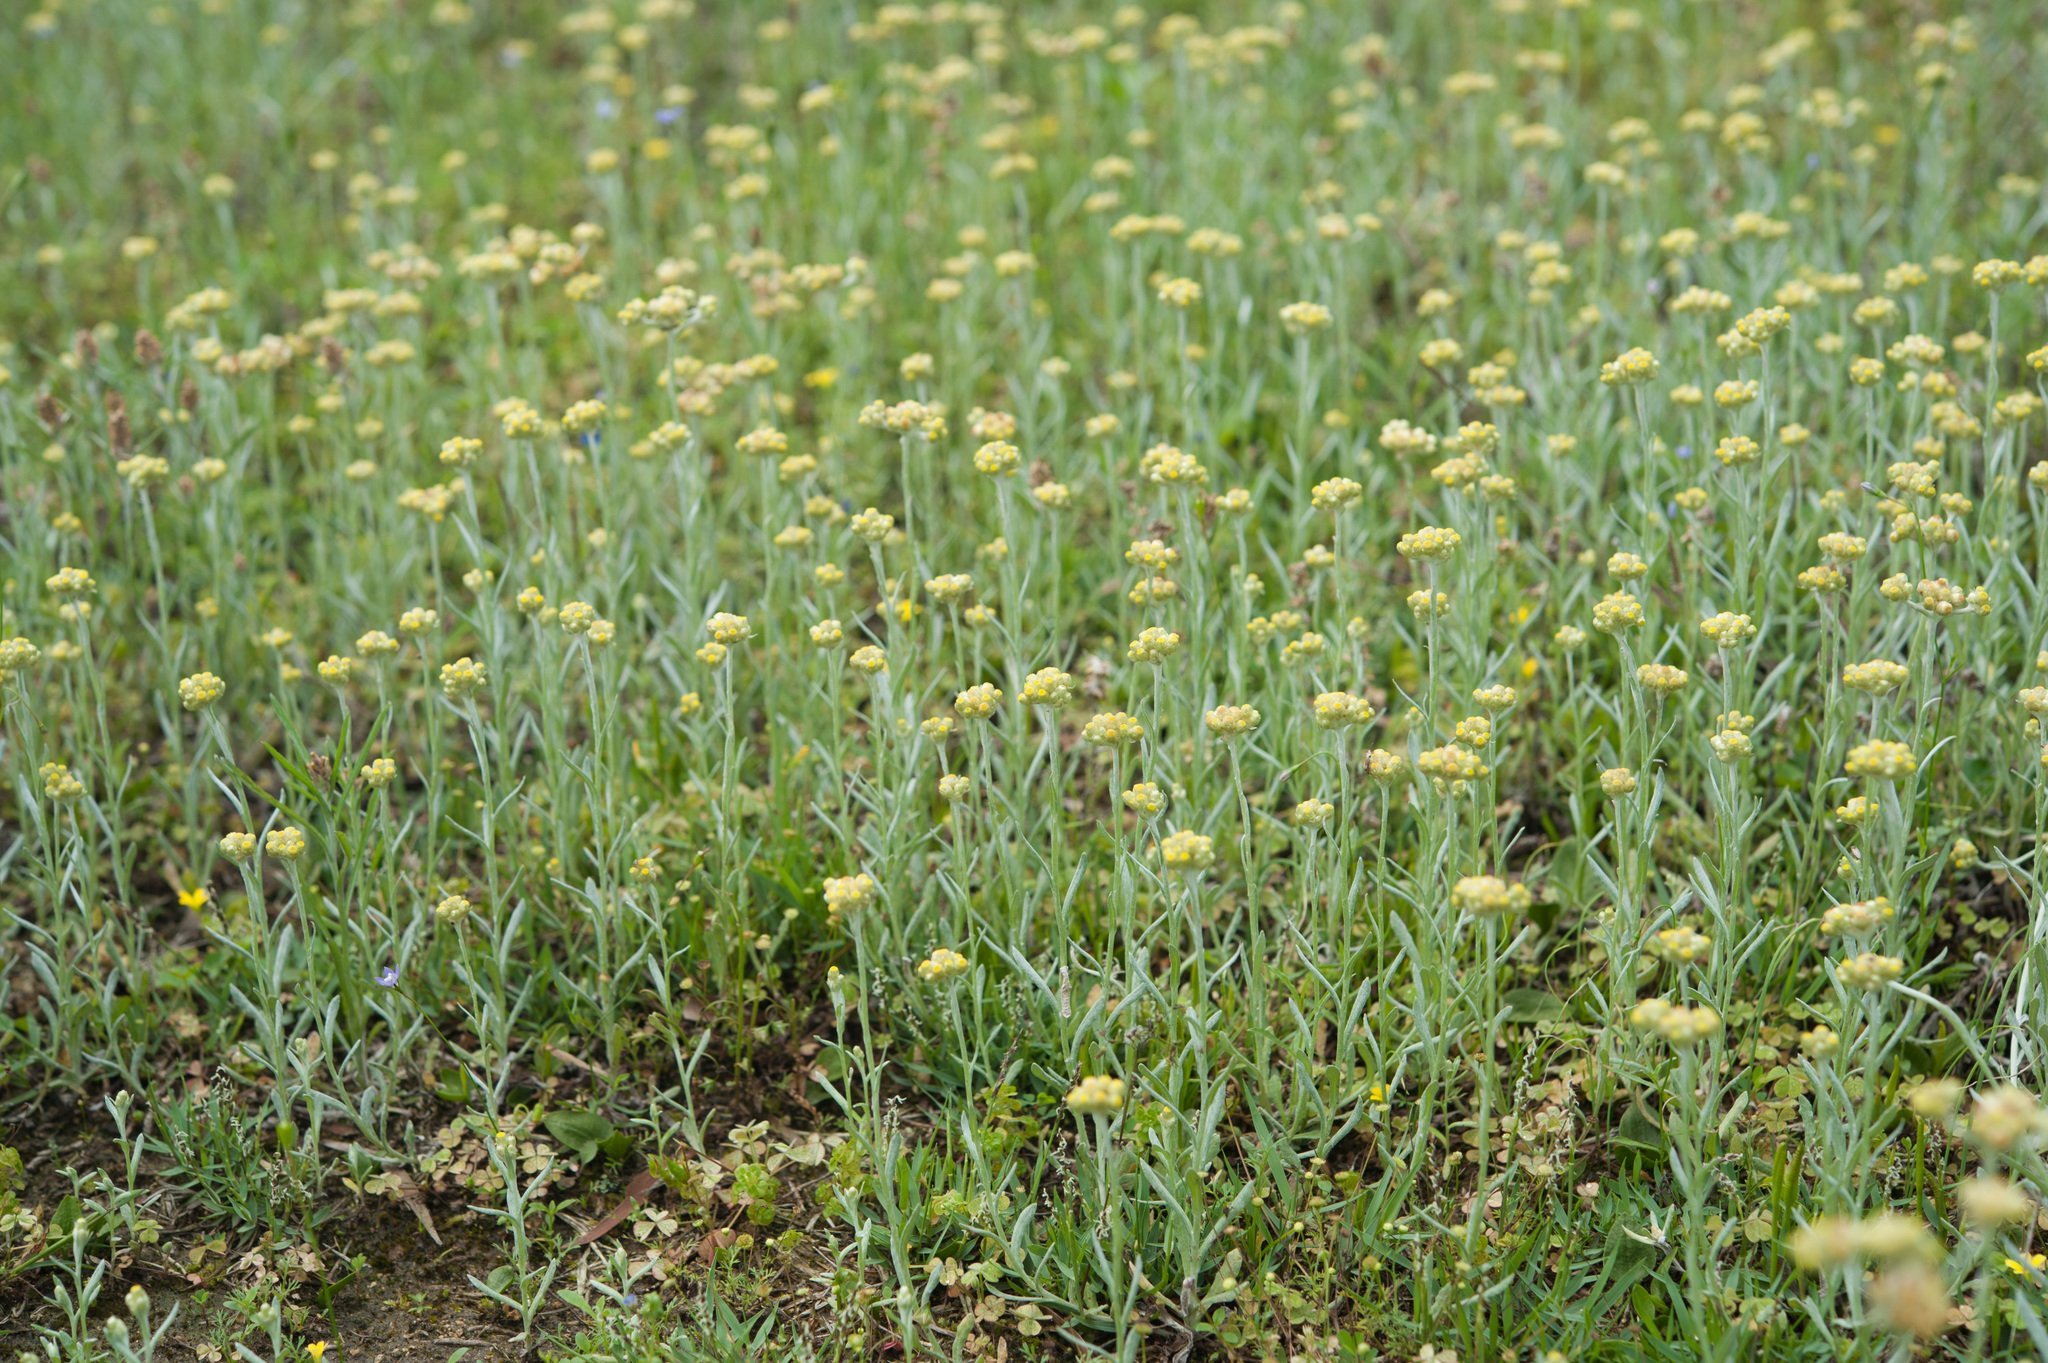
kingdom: Plantae
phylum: Tracheophyta
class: Magnoliopsida
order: Asterales
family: Asteraceae
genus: Pseudognaphalium
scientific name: Pseudognaphalium affine
